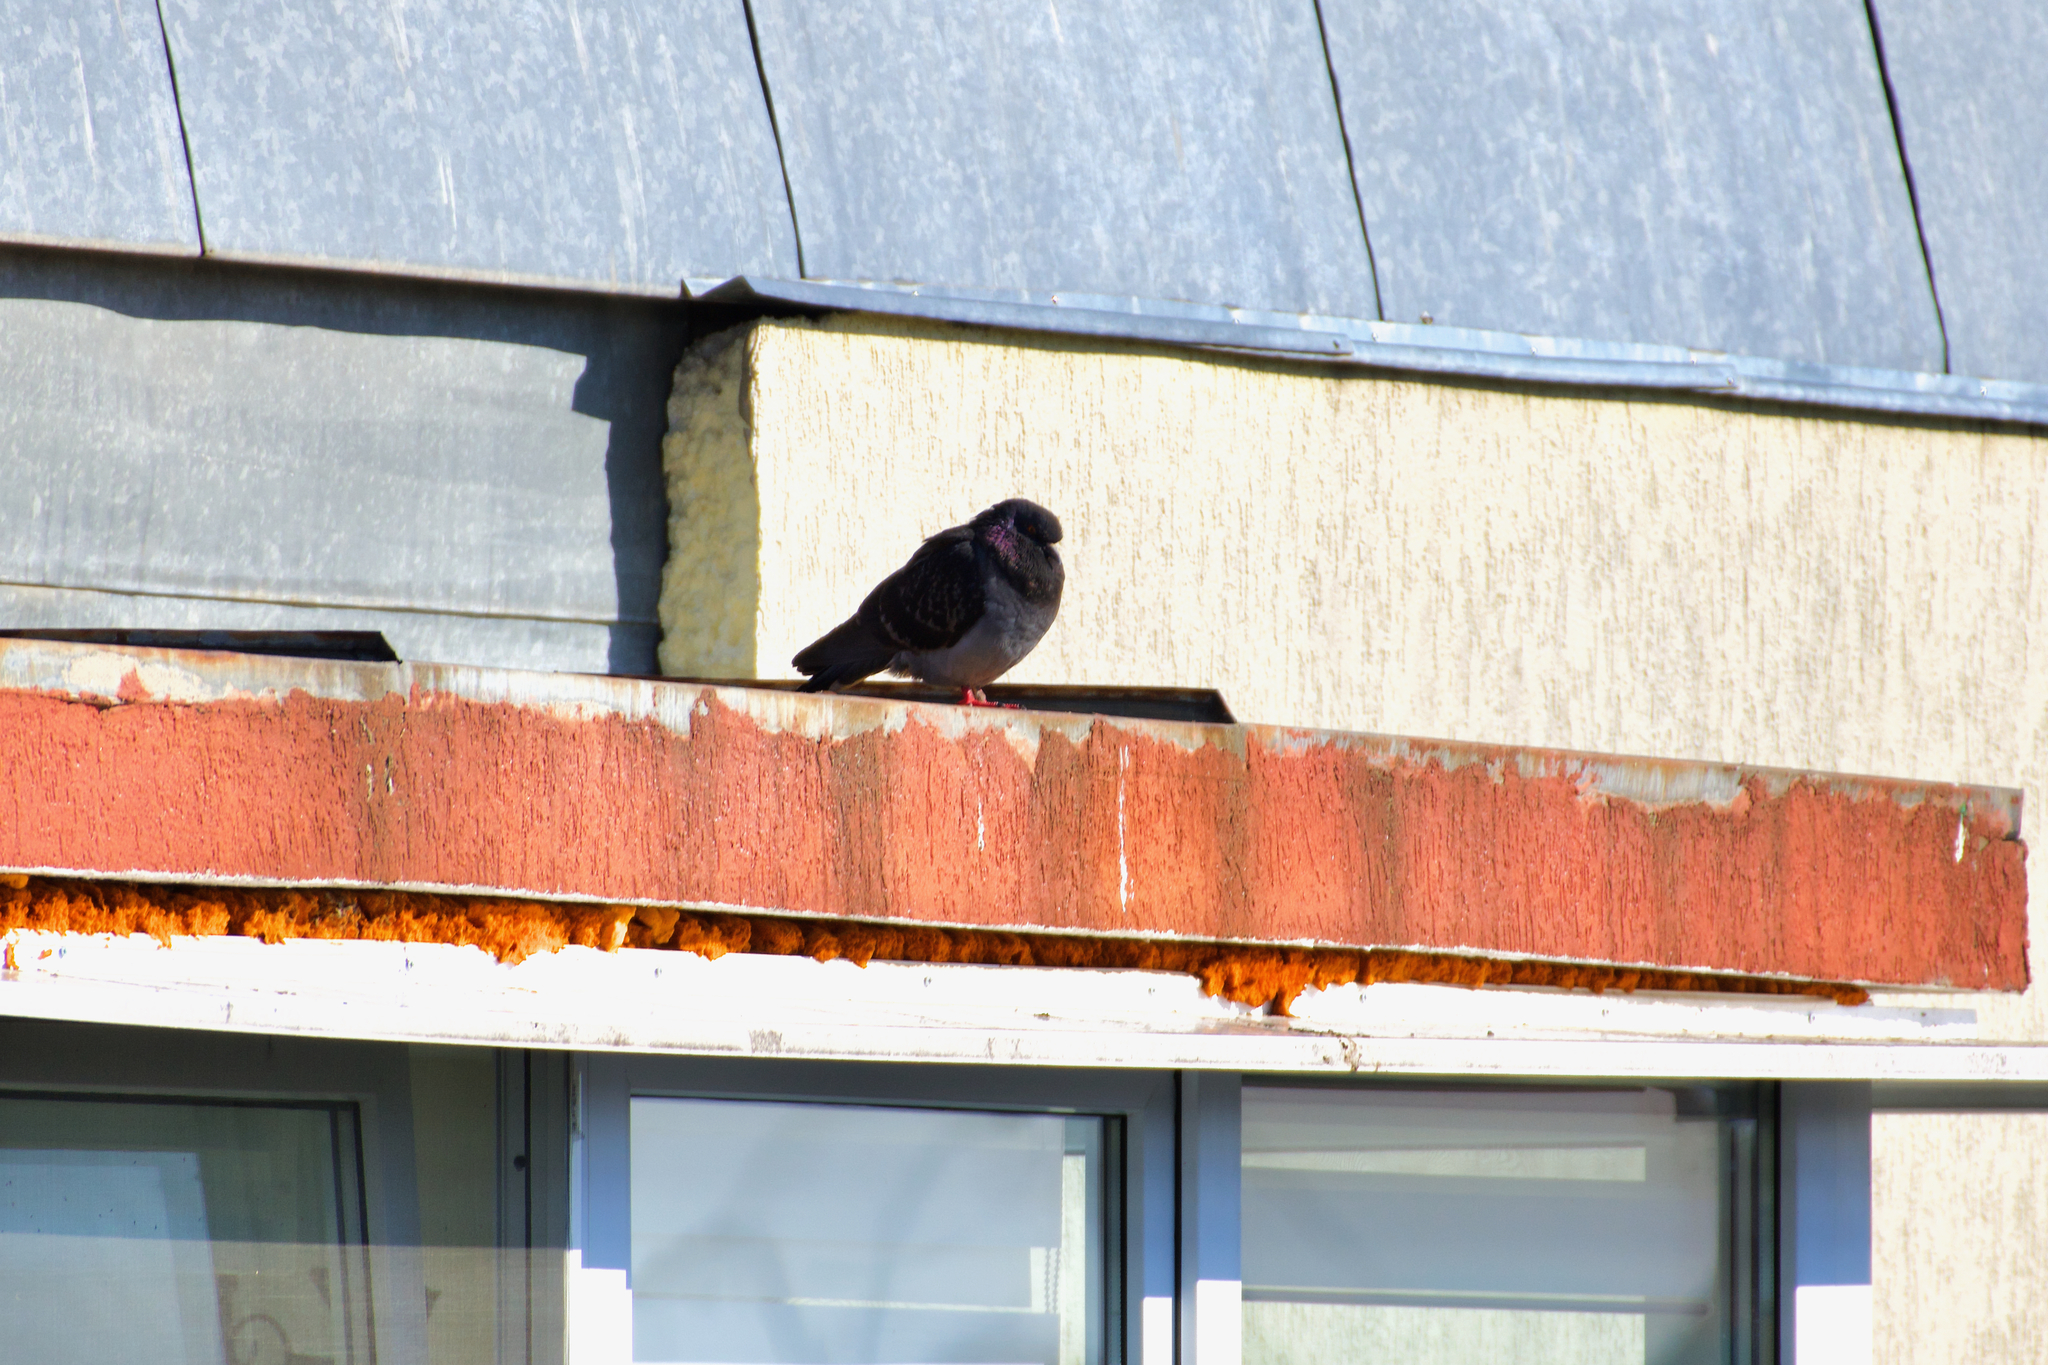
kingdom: Animalia
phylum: Chordata
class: Aves
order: Columbiformes
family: Columbidae
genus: Columba
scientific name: Columba livia
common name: Rock pigeon
